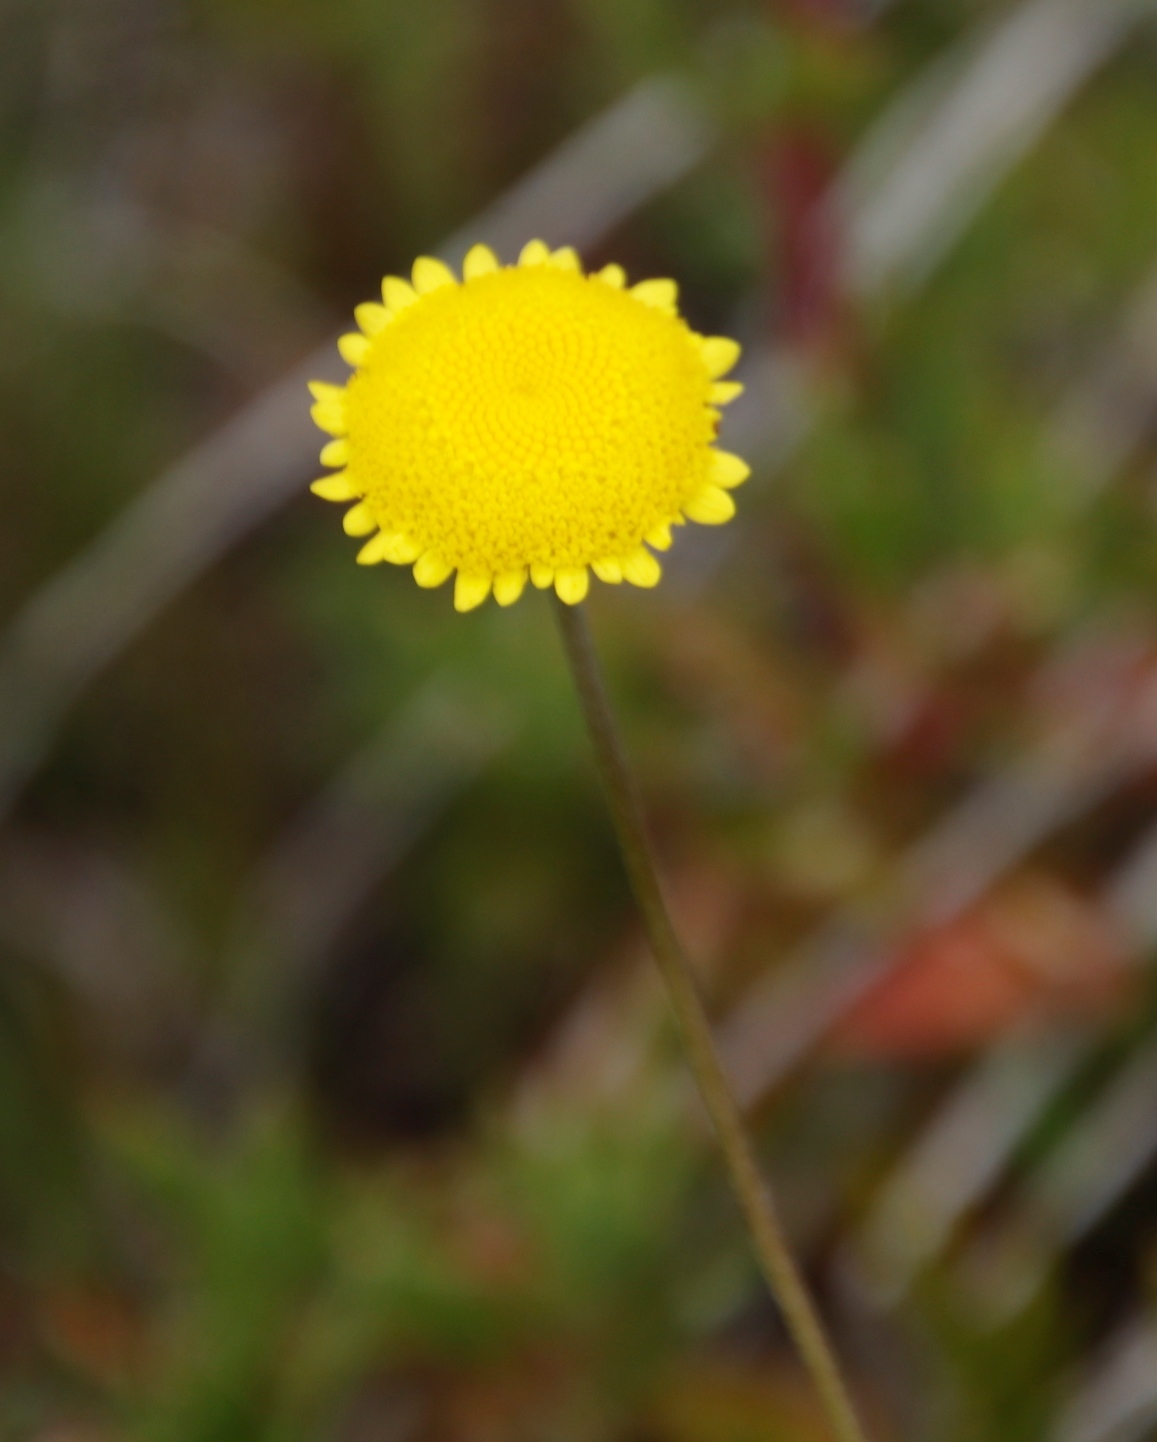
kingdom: Plantae
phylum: Tracheophyta
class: Magnoliopsida
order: Asterales
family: Asteraceae
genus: Cotula
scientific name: Cotula pruinosa
